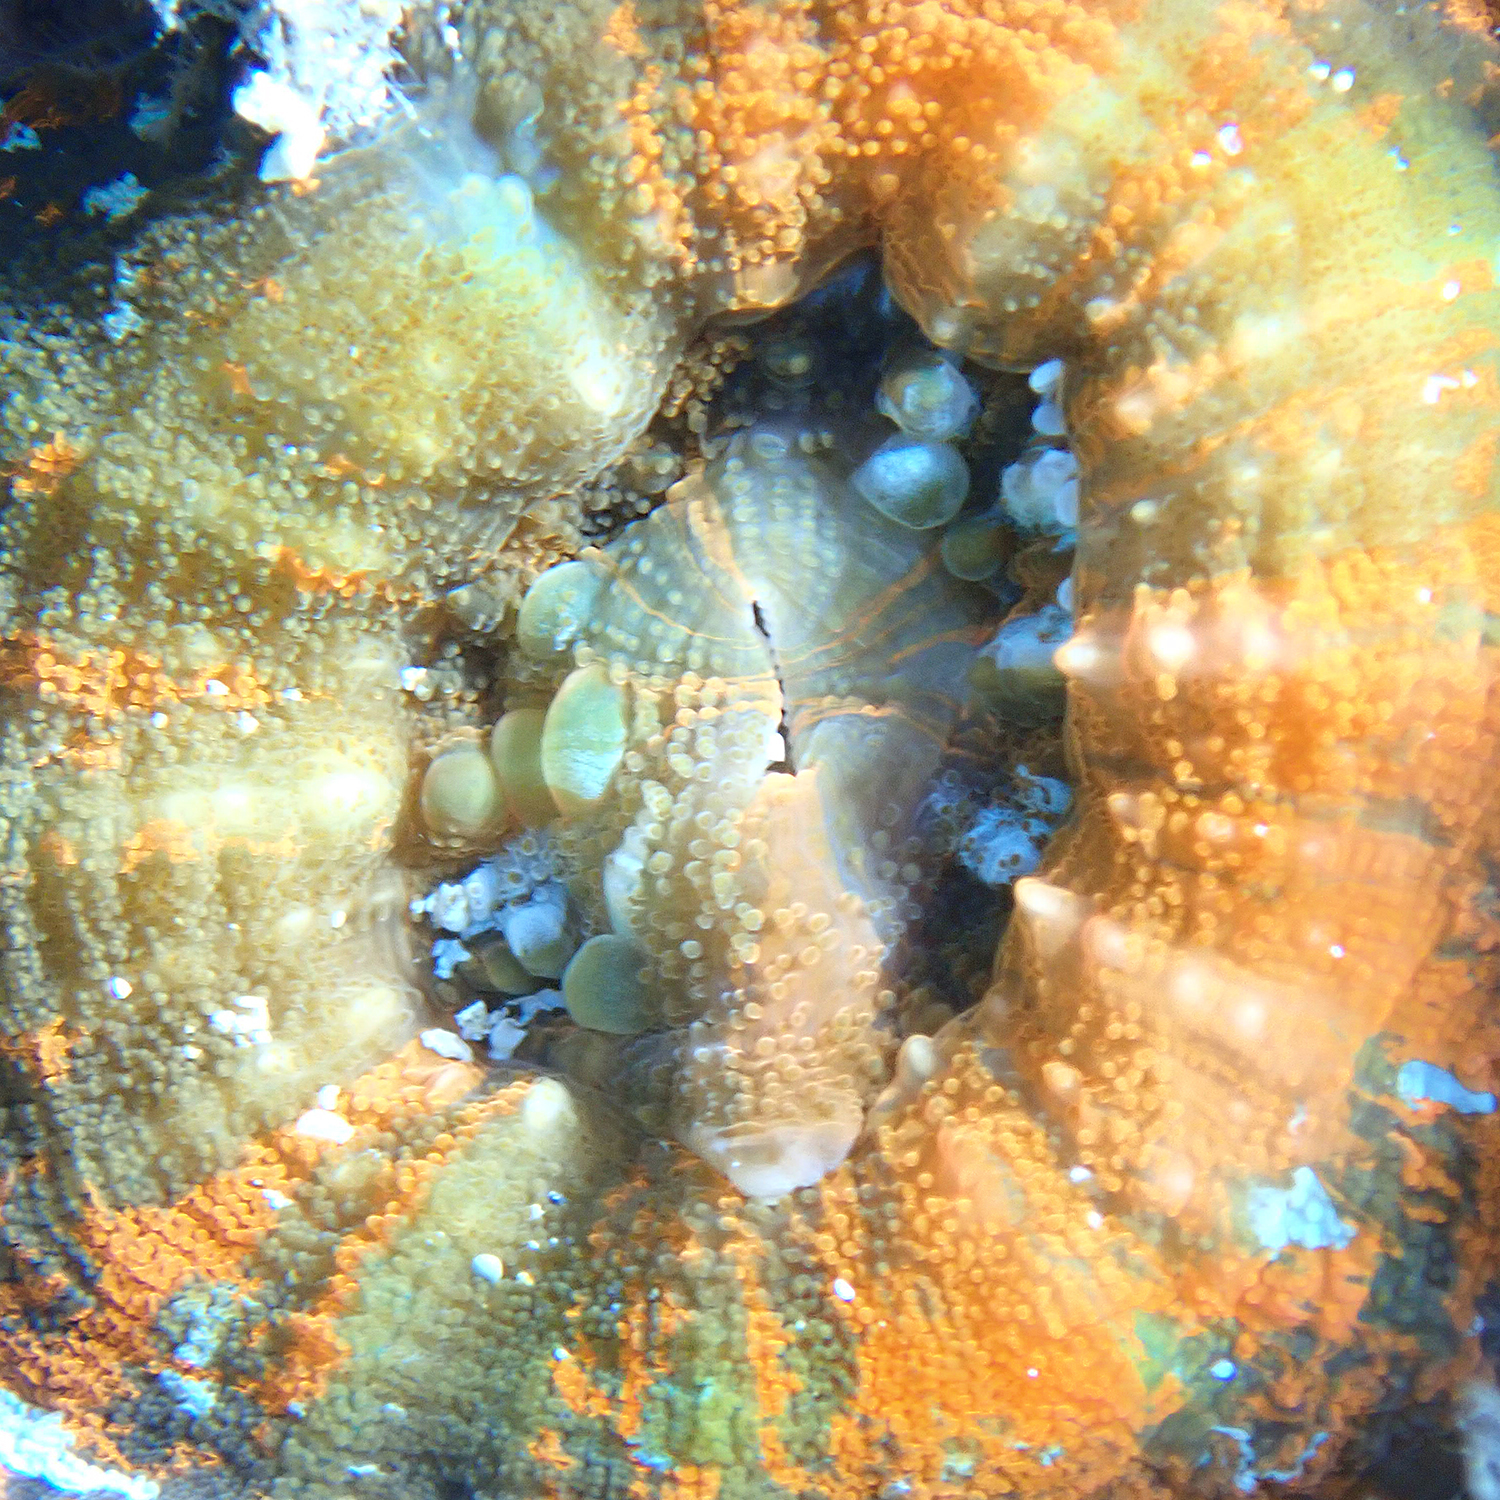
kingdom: Animalia
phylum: Cnidaria
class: Anthozoa
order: Scleractinia
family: Lobophylliidae
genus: Homophyllia
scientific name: Homophyllia australis
